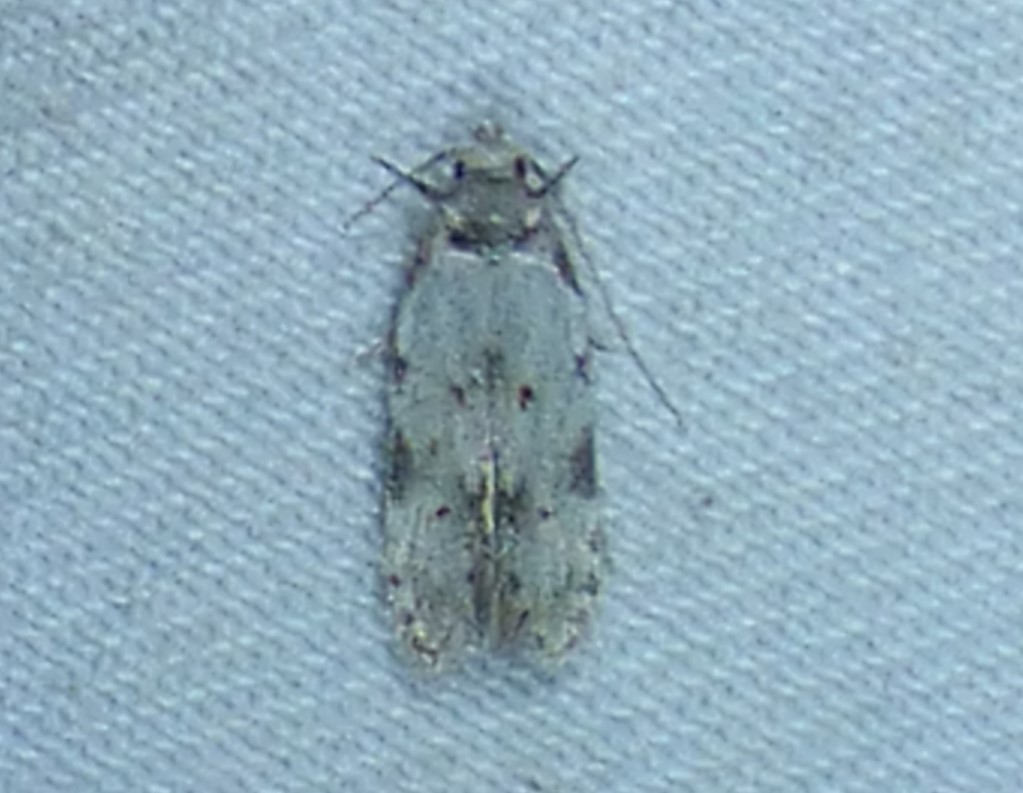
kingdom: Animalia
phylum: Arthropoda
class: Insecta
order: Lepidoptera
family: Autostichidae
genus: Taygete
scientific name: Taygete attributella
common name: Triangle-marked twirler moth
